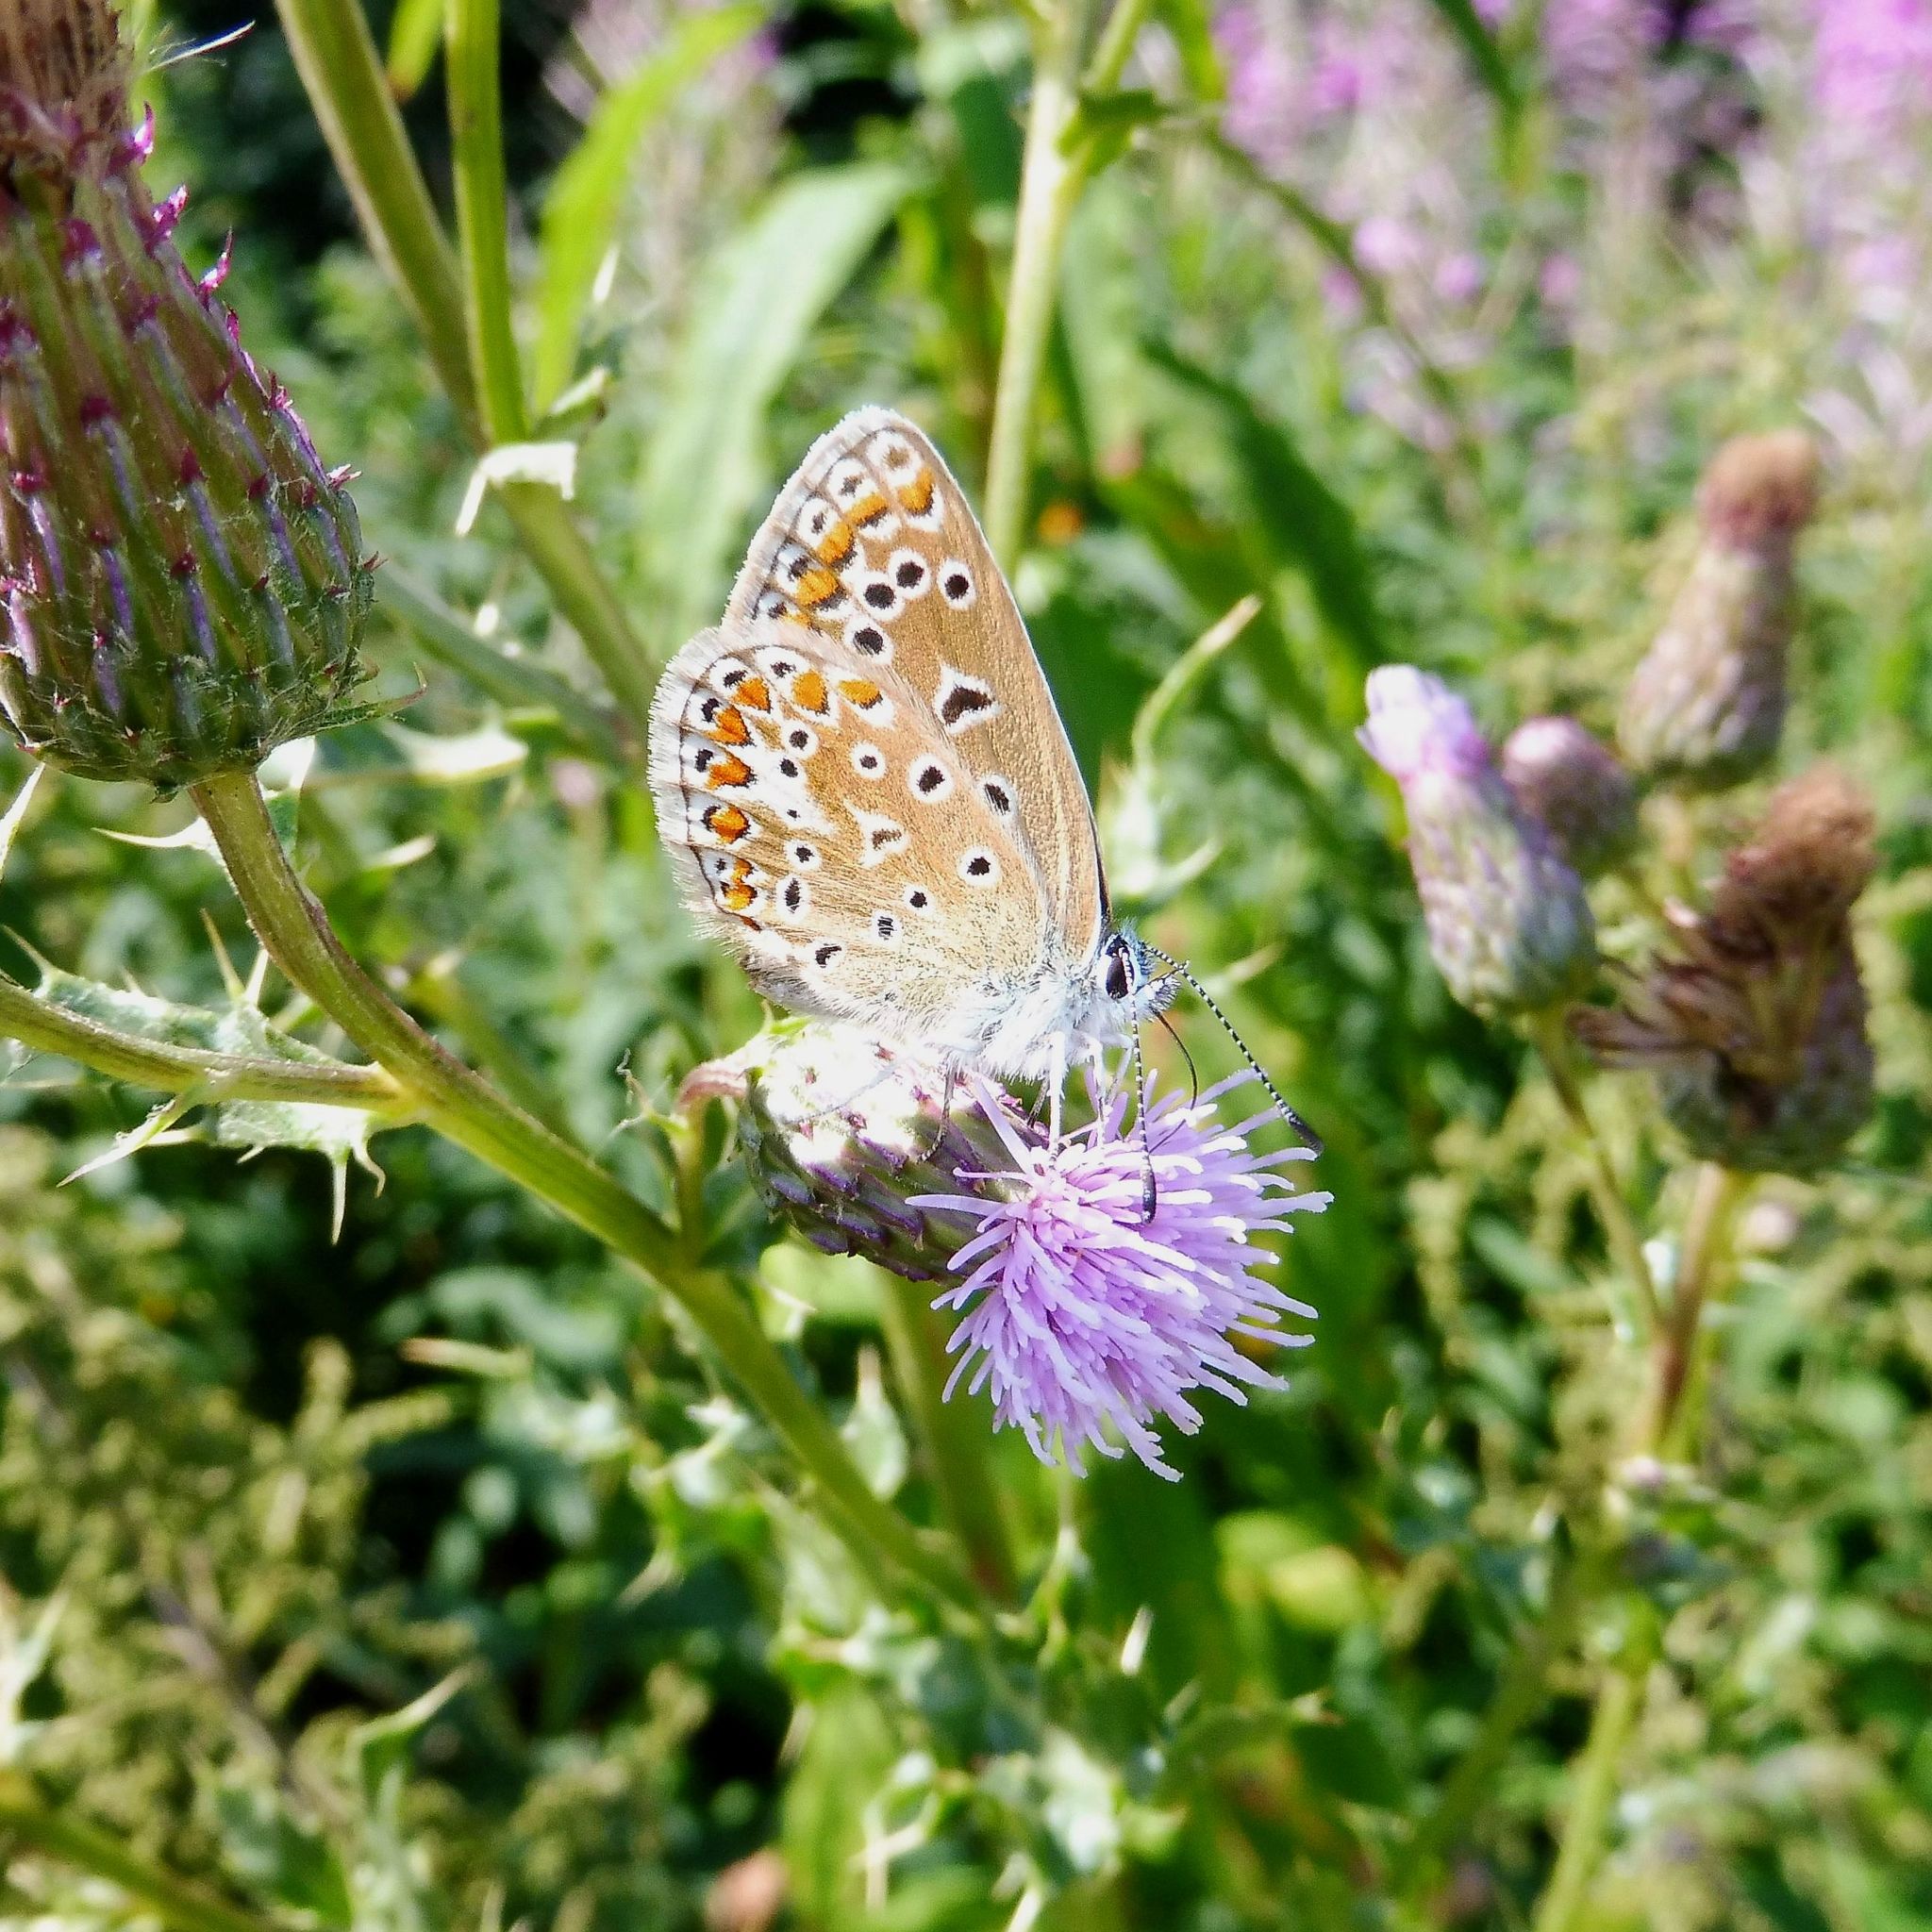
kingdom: Animalia
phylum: Arthropoda
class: Insecta
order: Lepidoptera
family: Lycaenidae
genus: Polyommatus
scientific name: Polyommatus icarus
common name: Common blue
